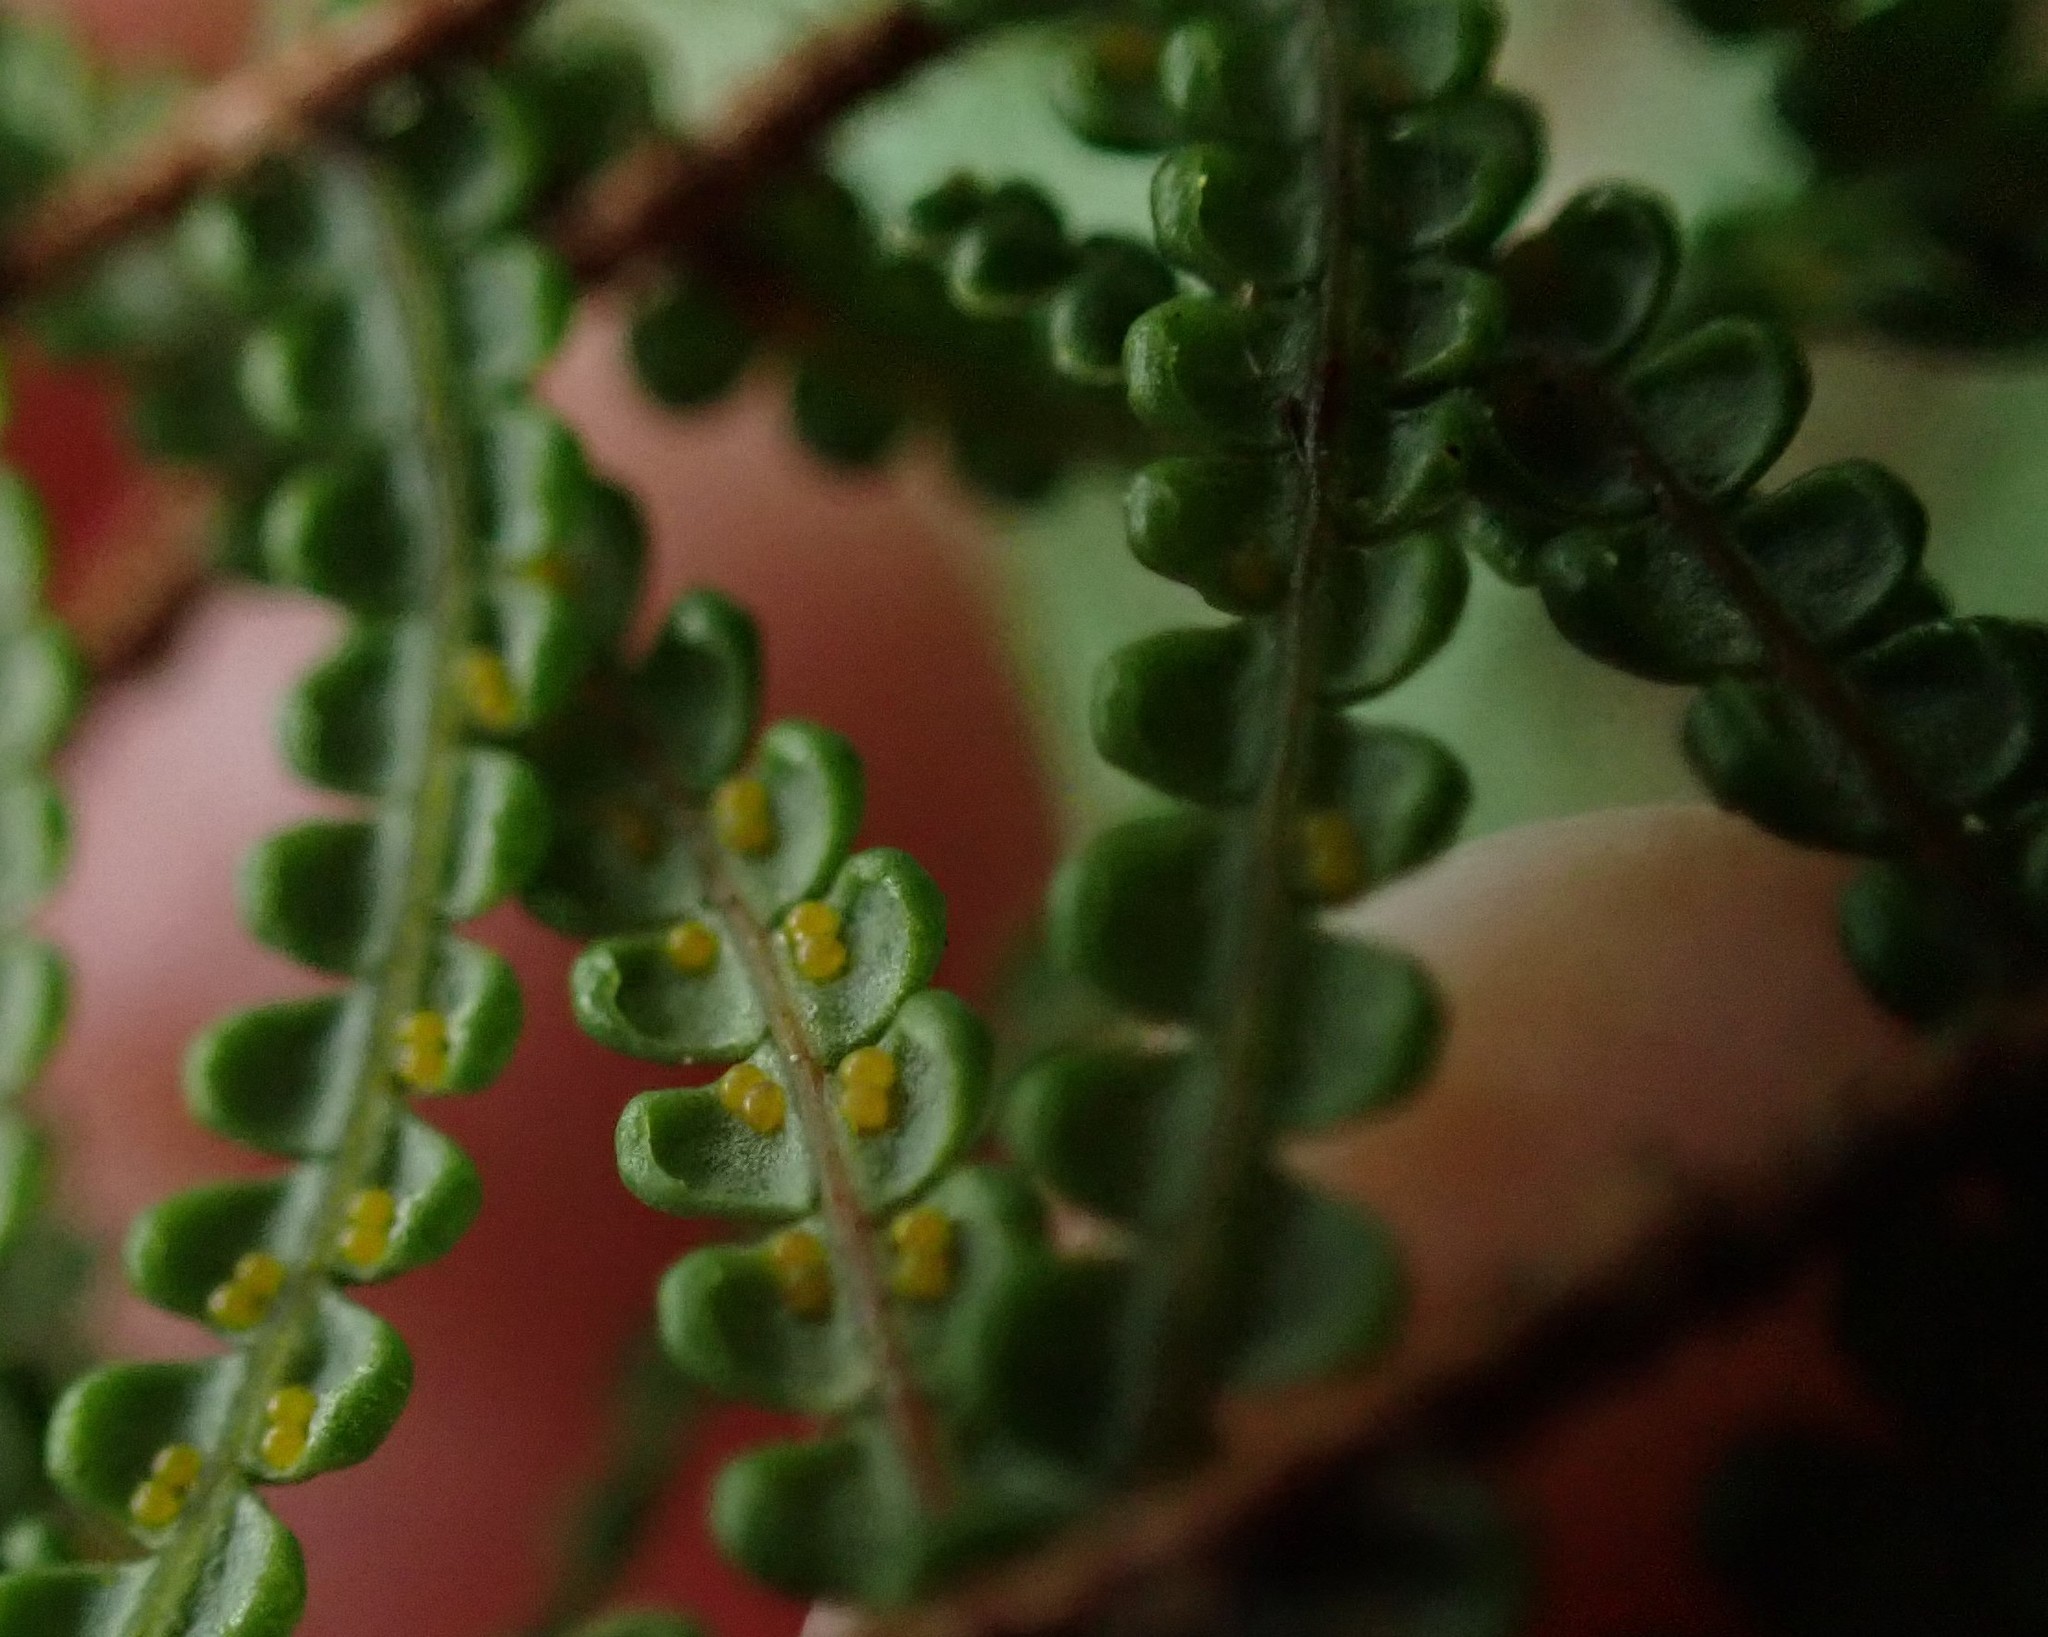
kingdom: Plantae
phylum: Tracheophyta
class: Polypodiopsida
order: Gleicheniales
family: Gleicheniaceae
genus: Gleichenia
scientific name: Gleichenia microphylla
